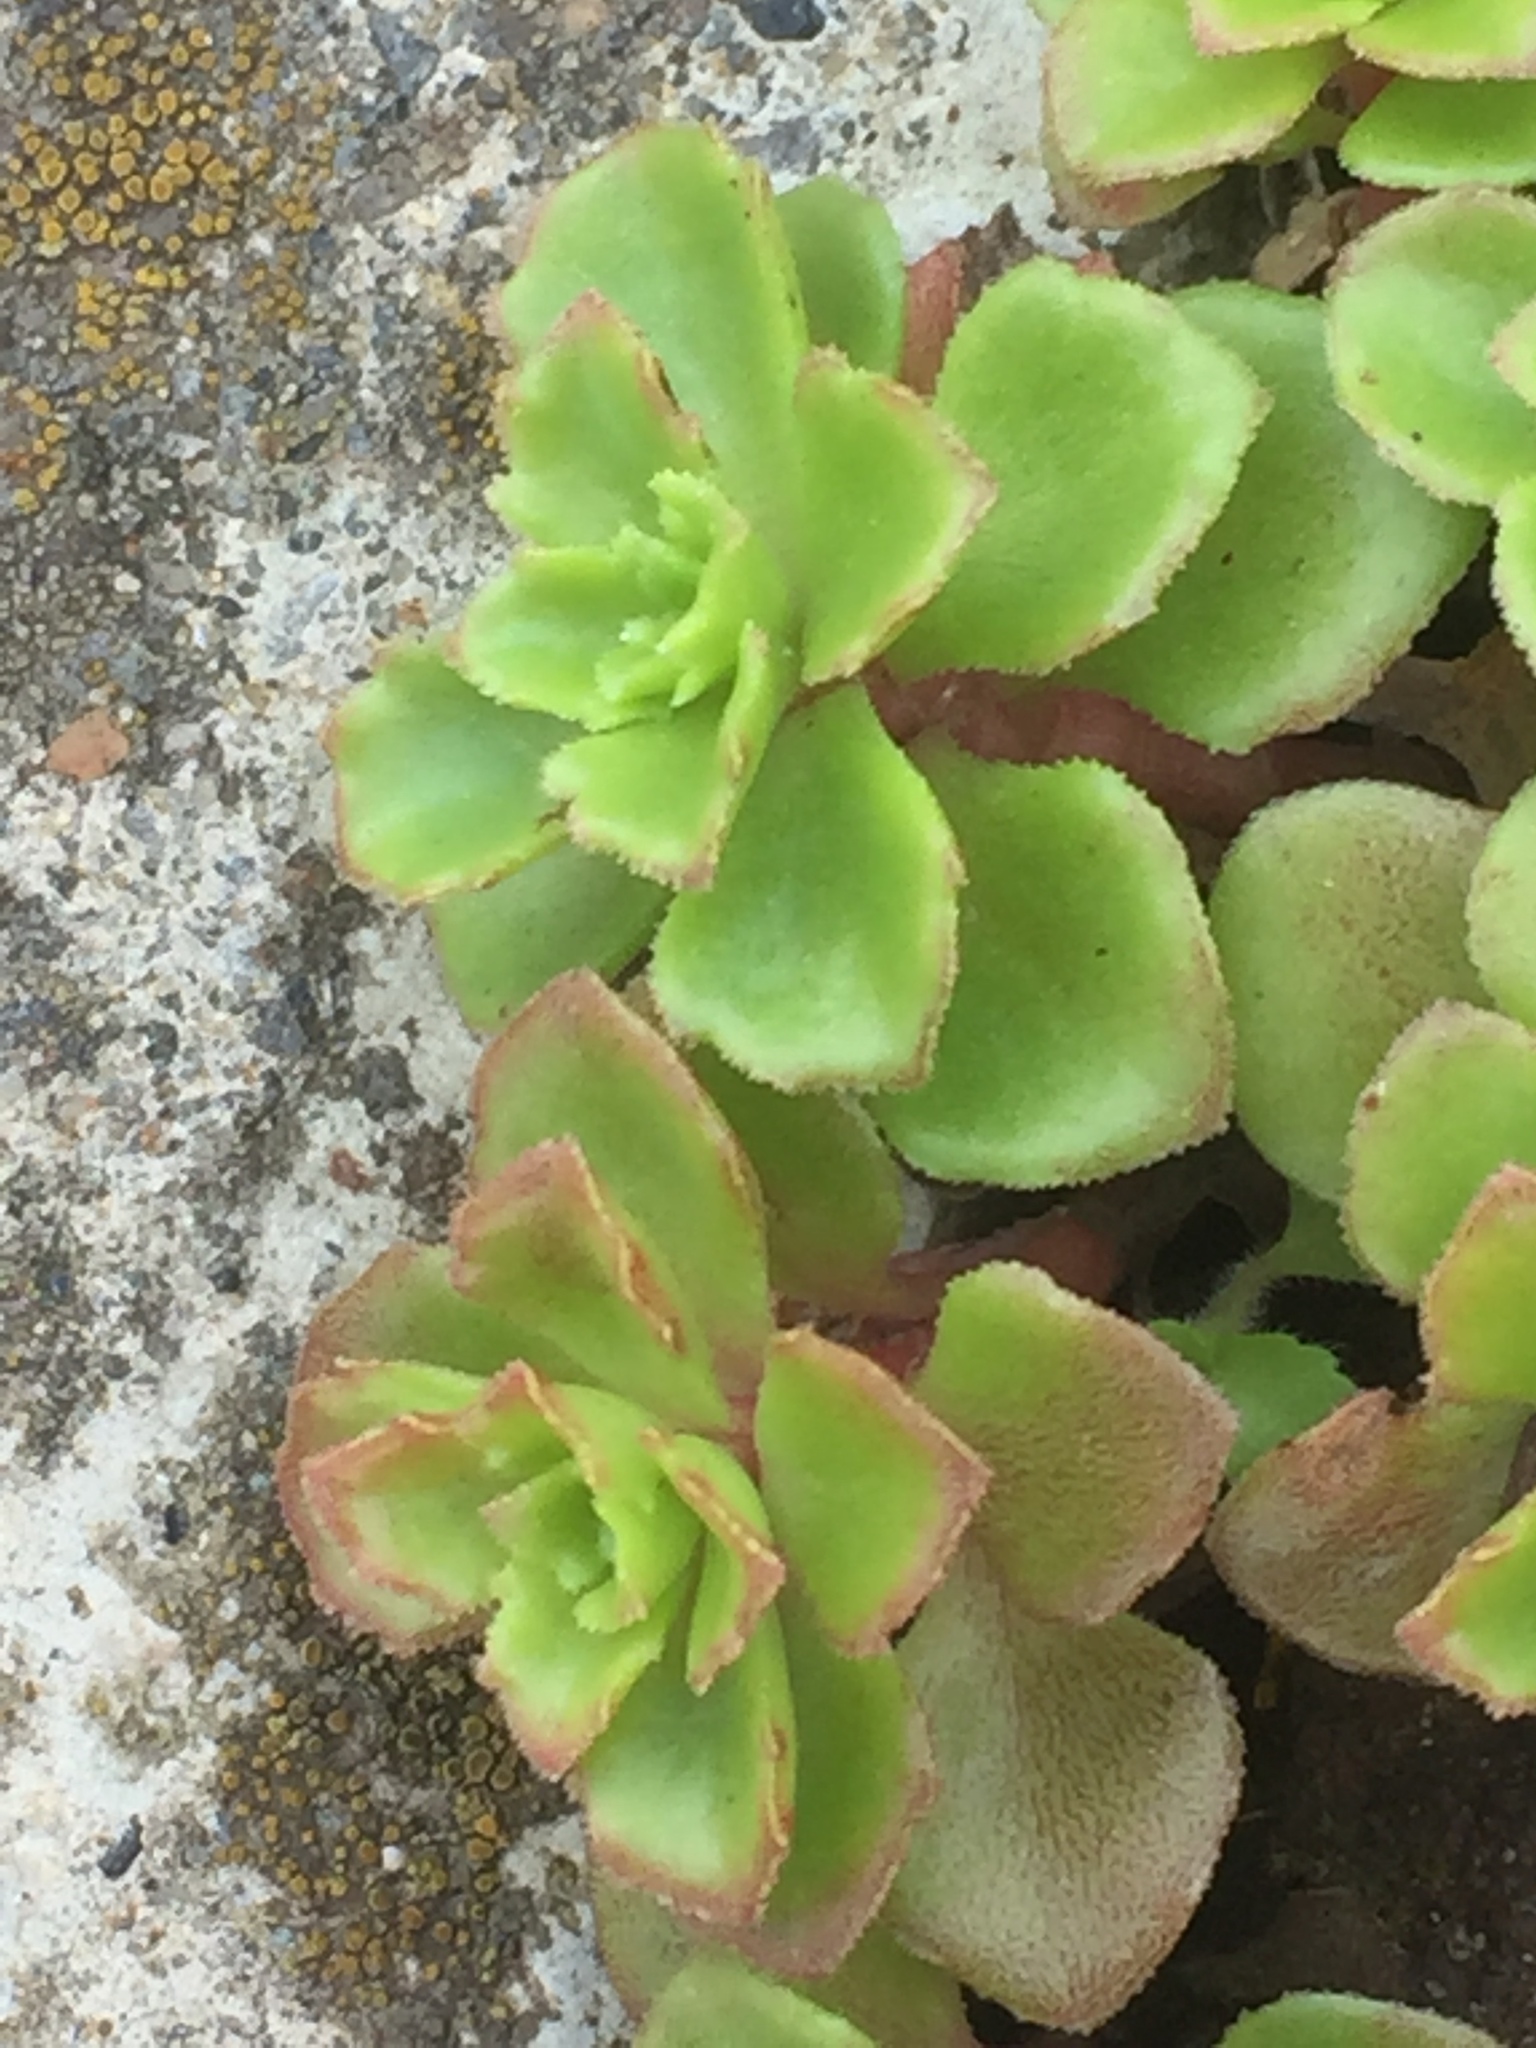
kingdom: Plantae
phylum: Tracheophyta
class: Magnoliopsida
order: Saxifragales
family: Crassulaceae
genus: Phedimus
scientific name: Phedimus stellatus
